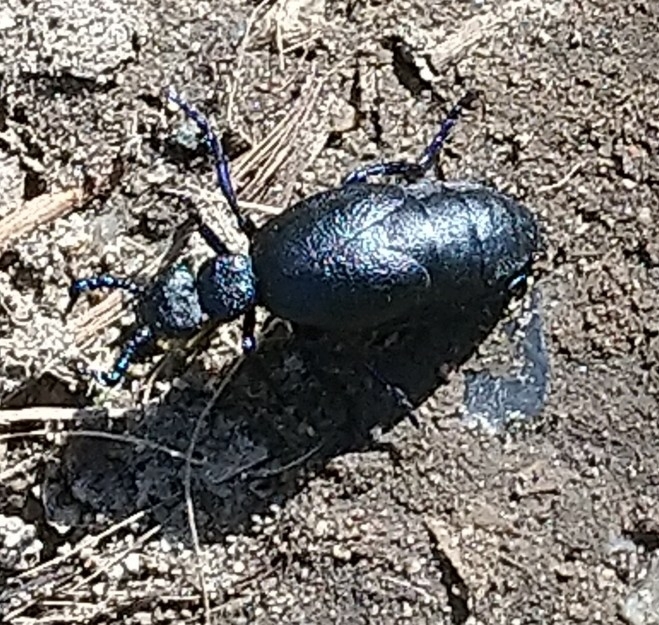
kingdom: Animalia
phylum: Arthropoda
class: Insecta
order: Coleoptera
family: Meloidae
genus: Meloe
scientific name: Meloe proscarabaeus
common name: Black oil-beetle
